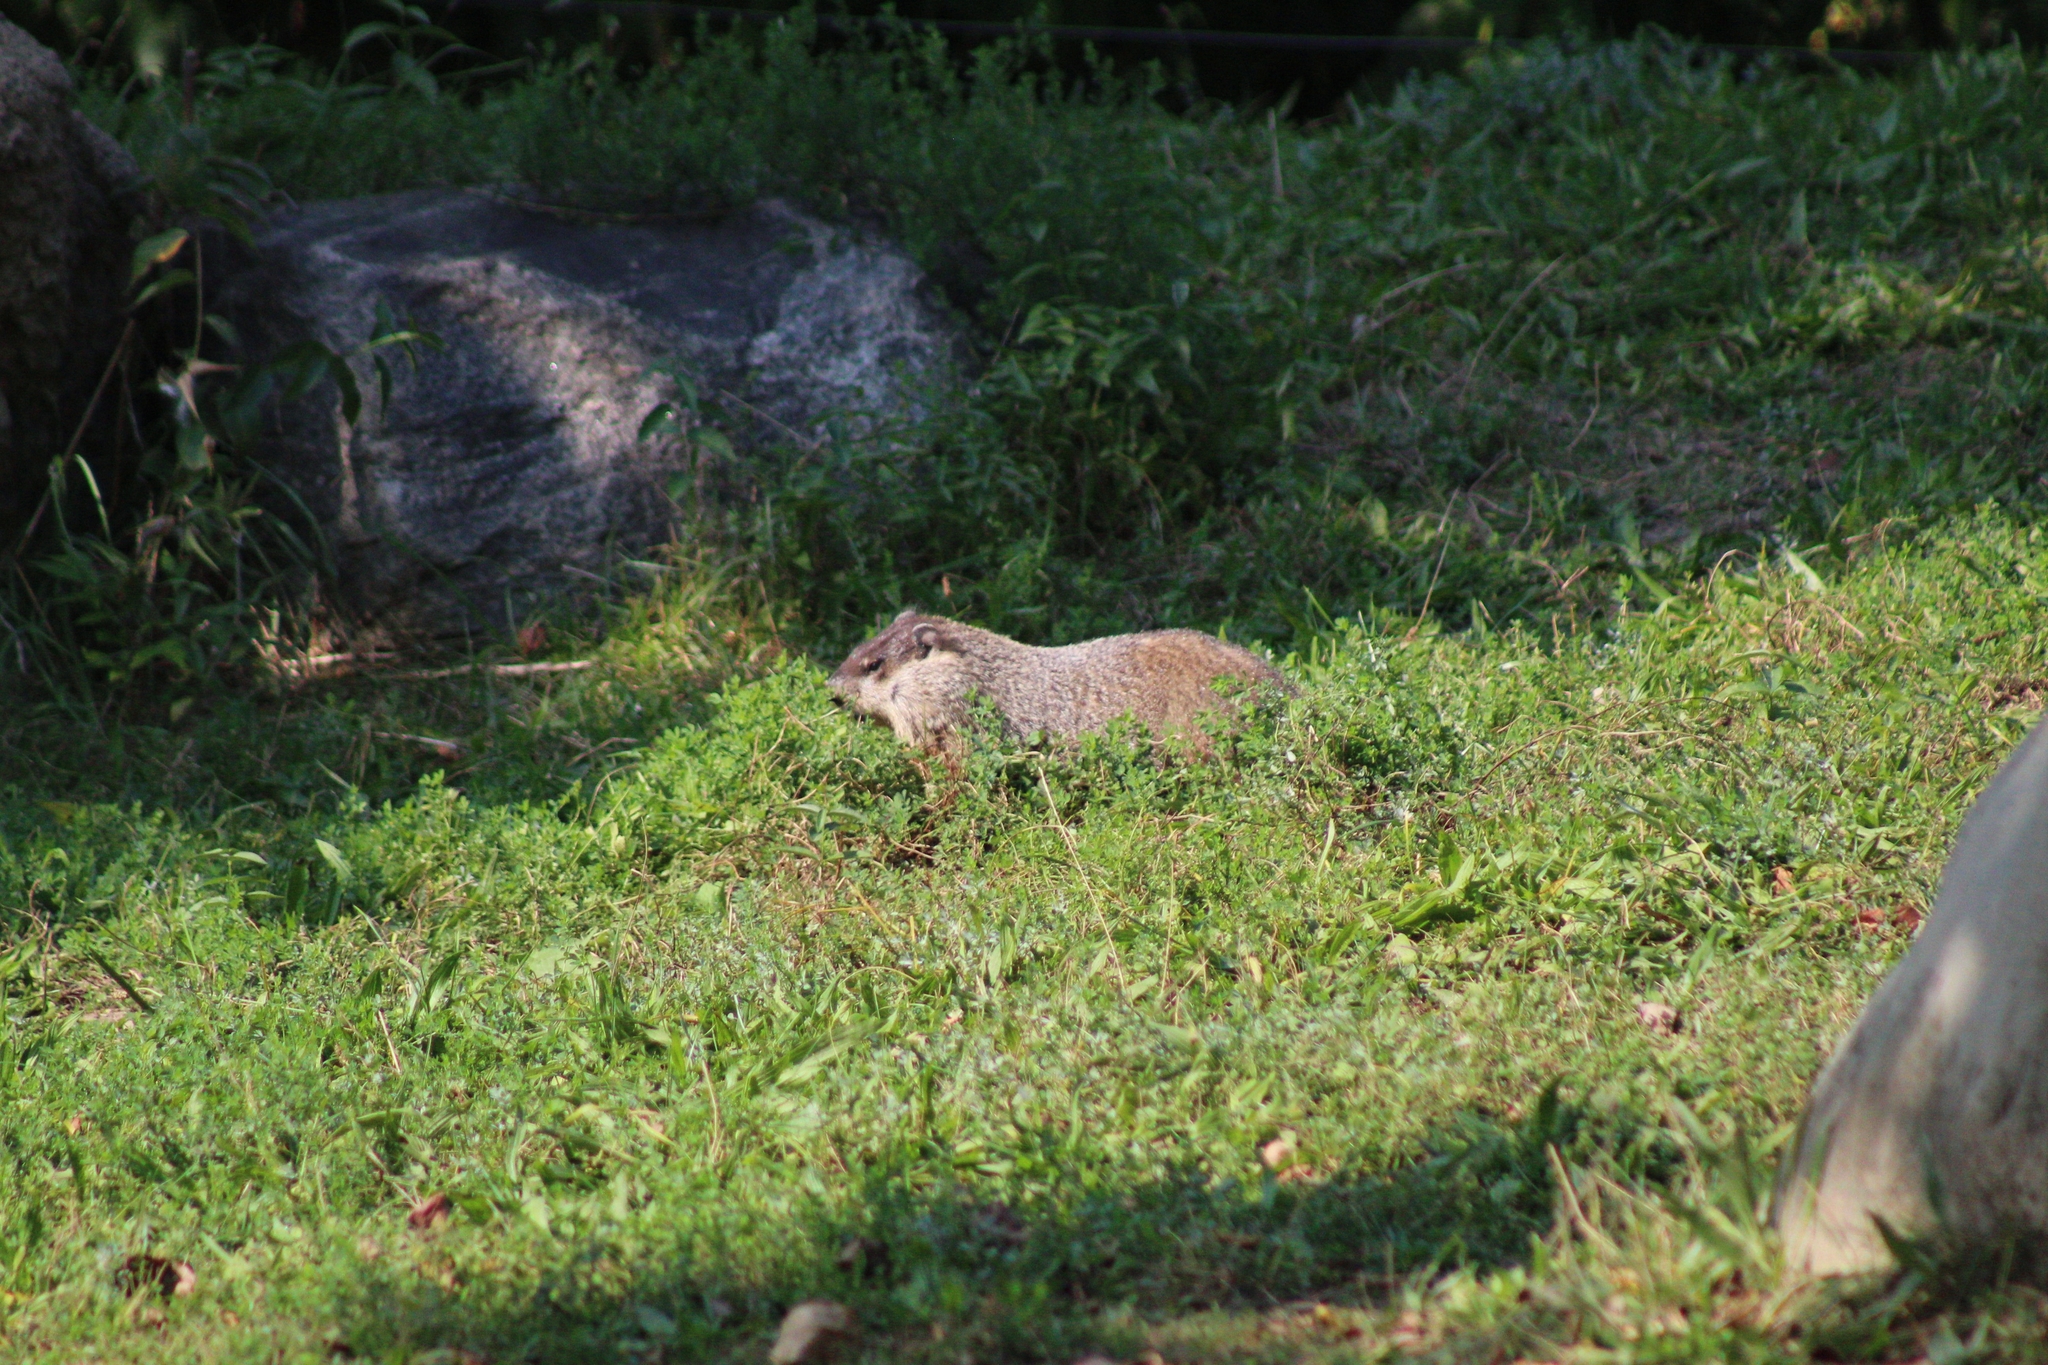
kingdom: Animalia
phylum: Chordata
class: Mammalia
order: Rodentia
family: Sciuridae
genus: Marmota
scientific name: Marmota monax
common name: Groundhog
